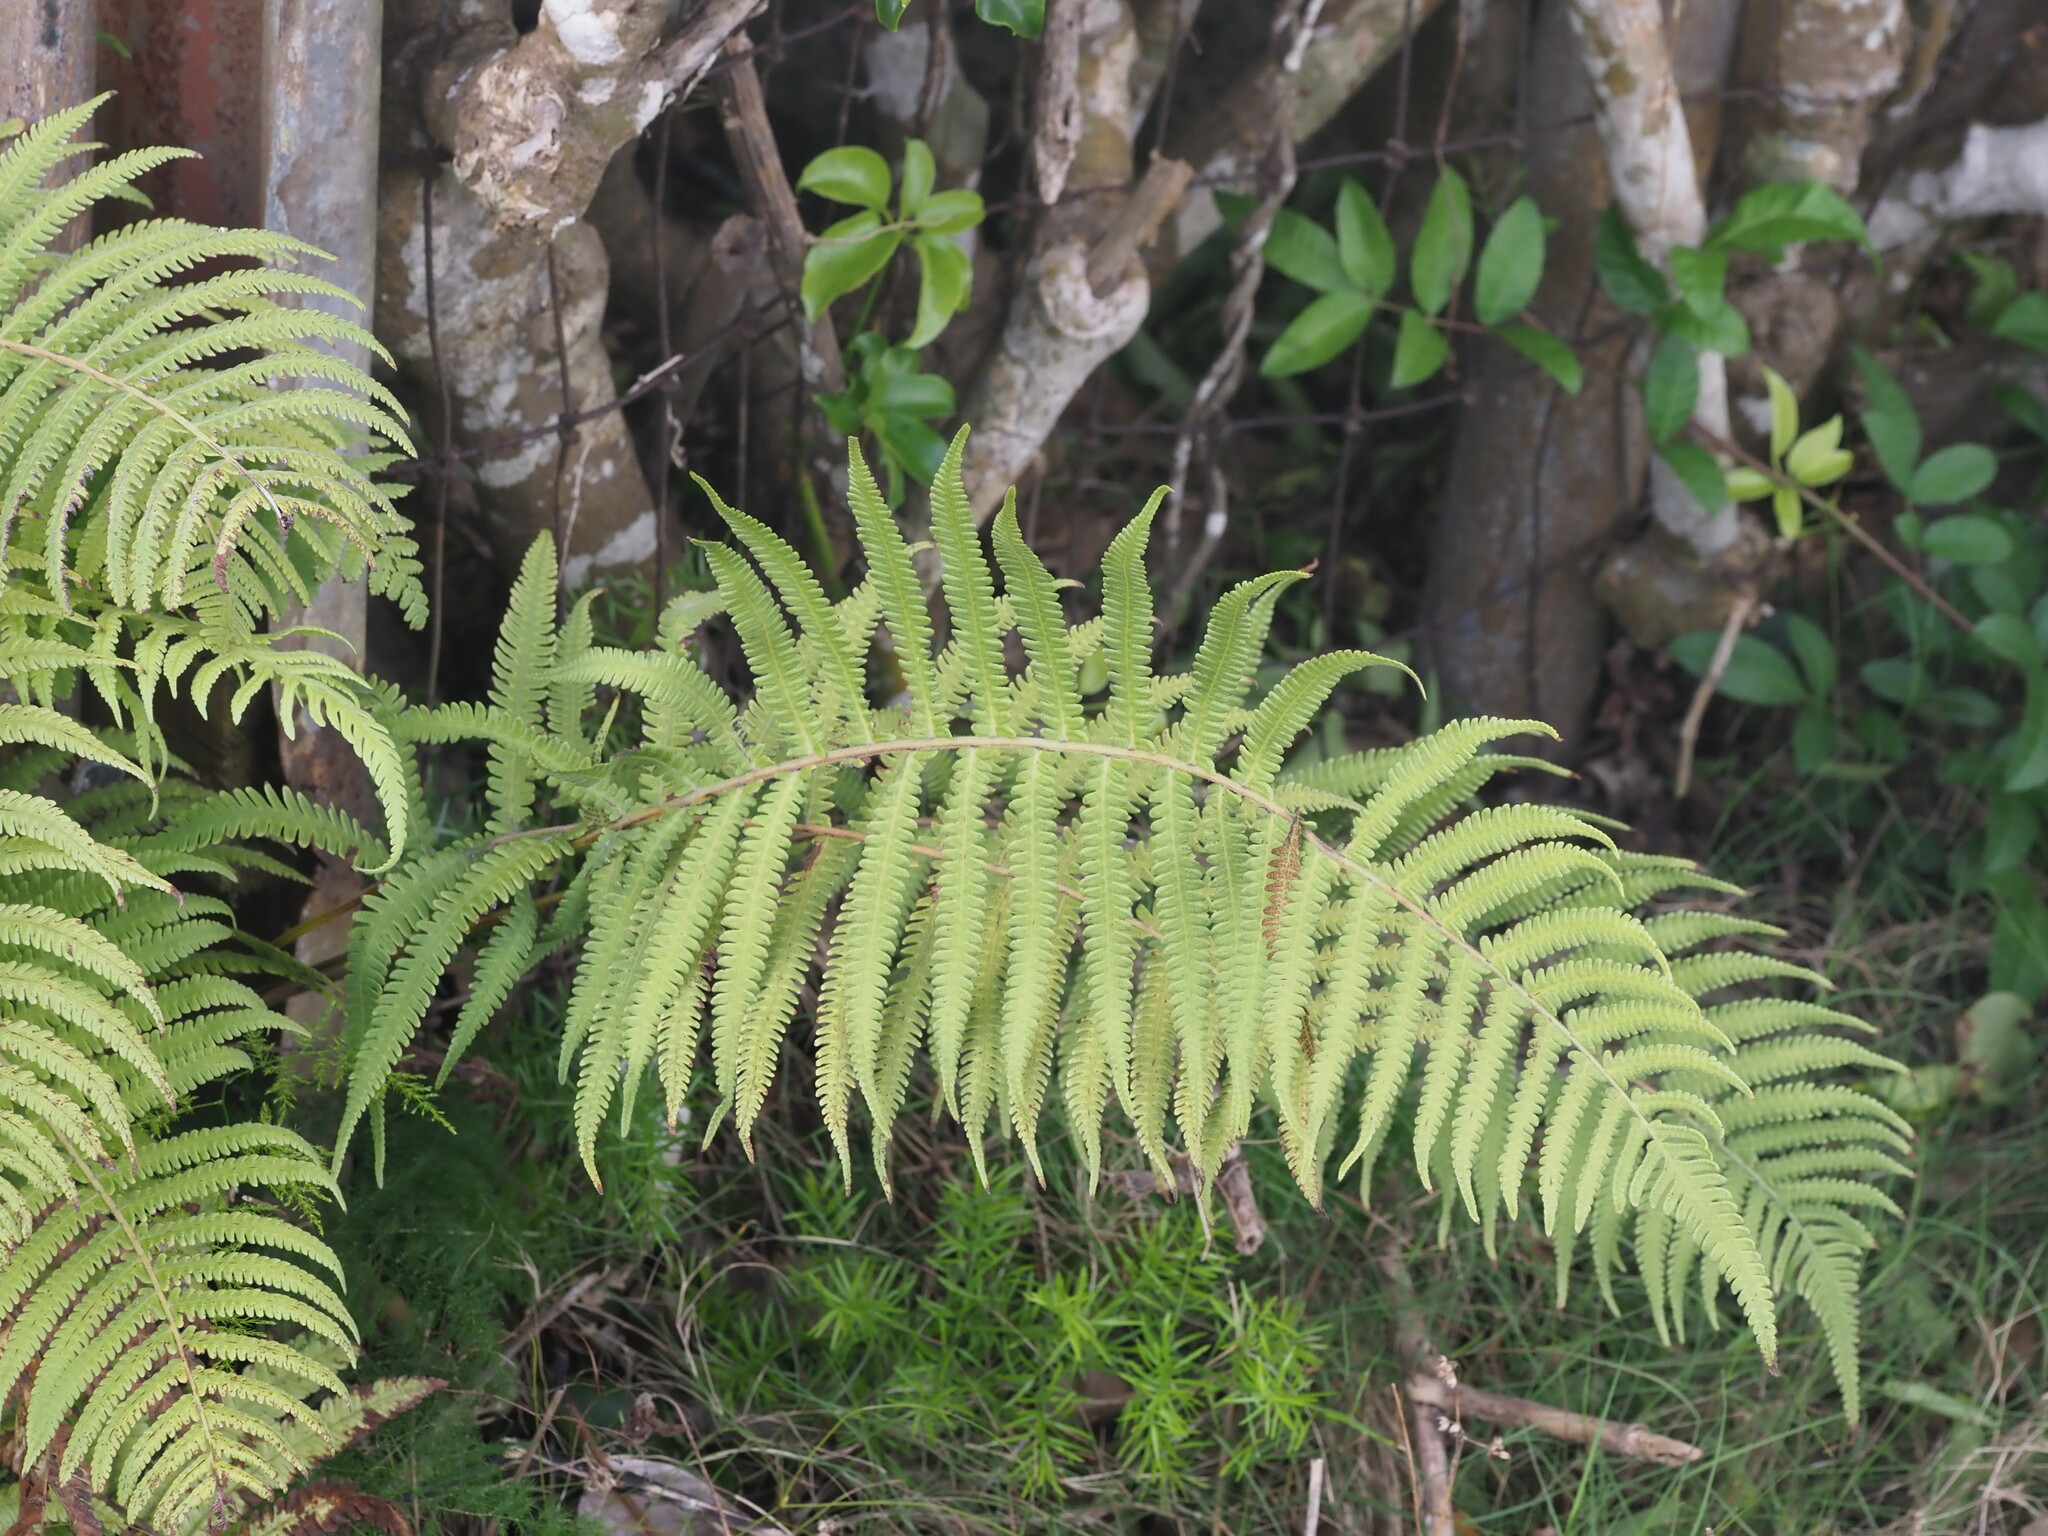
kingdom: Plantae
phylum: Tracheophyta
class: Polypodiopsida
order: Polypodiales
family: Thelypteridaceae
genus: Christella
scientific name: Christella parasitica
